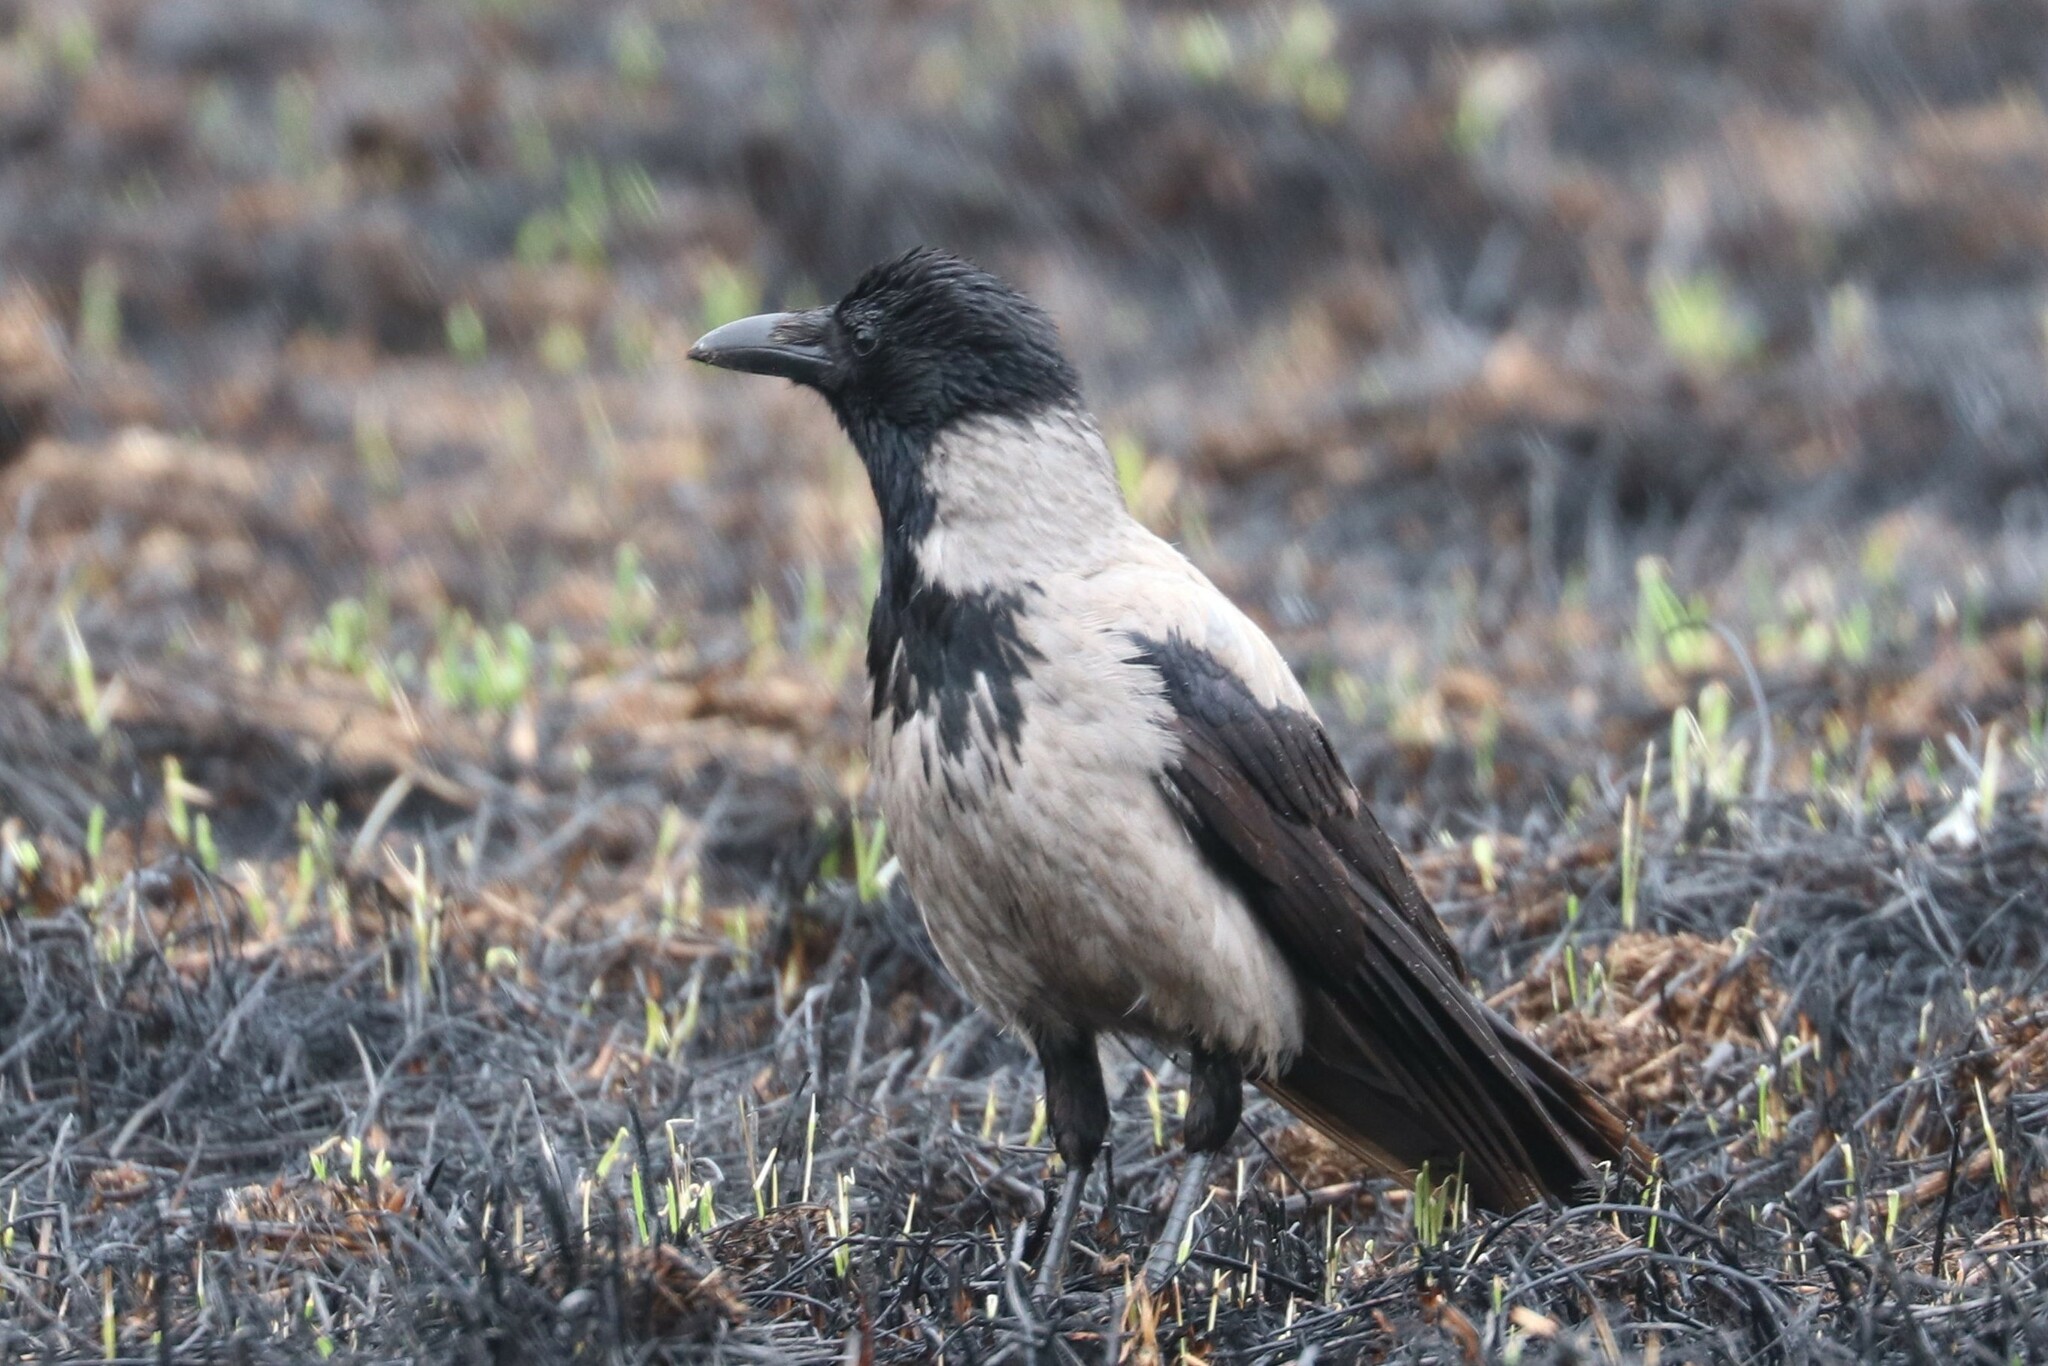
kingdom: Animalia
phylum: Chordata
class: Aves
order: Passeriformes
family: Corvidae
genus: Corvus
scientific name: Corvus cornix
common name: Hooded crow
